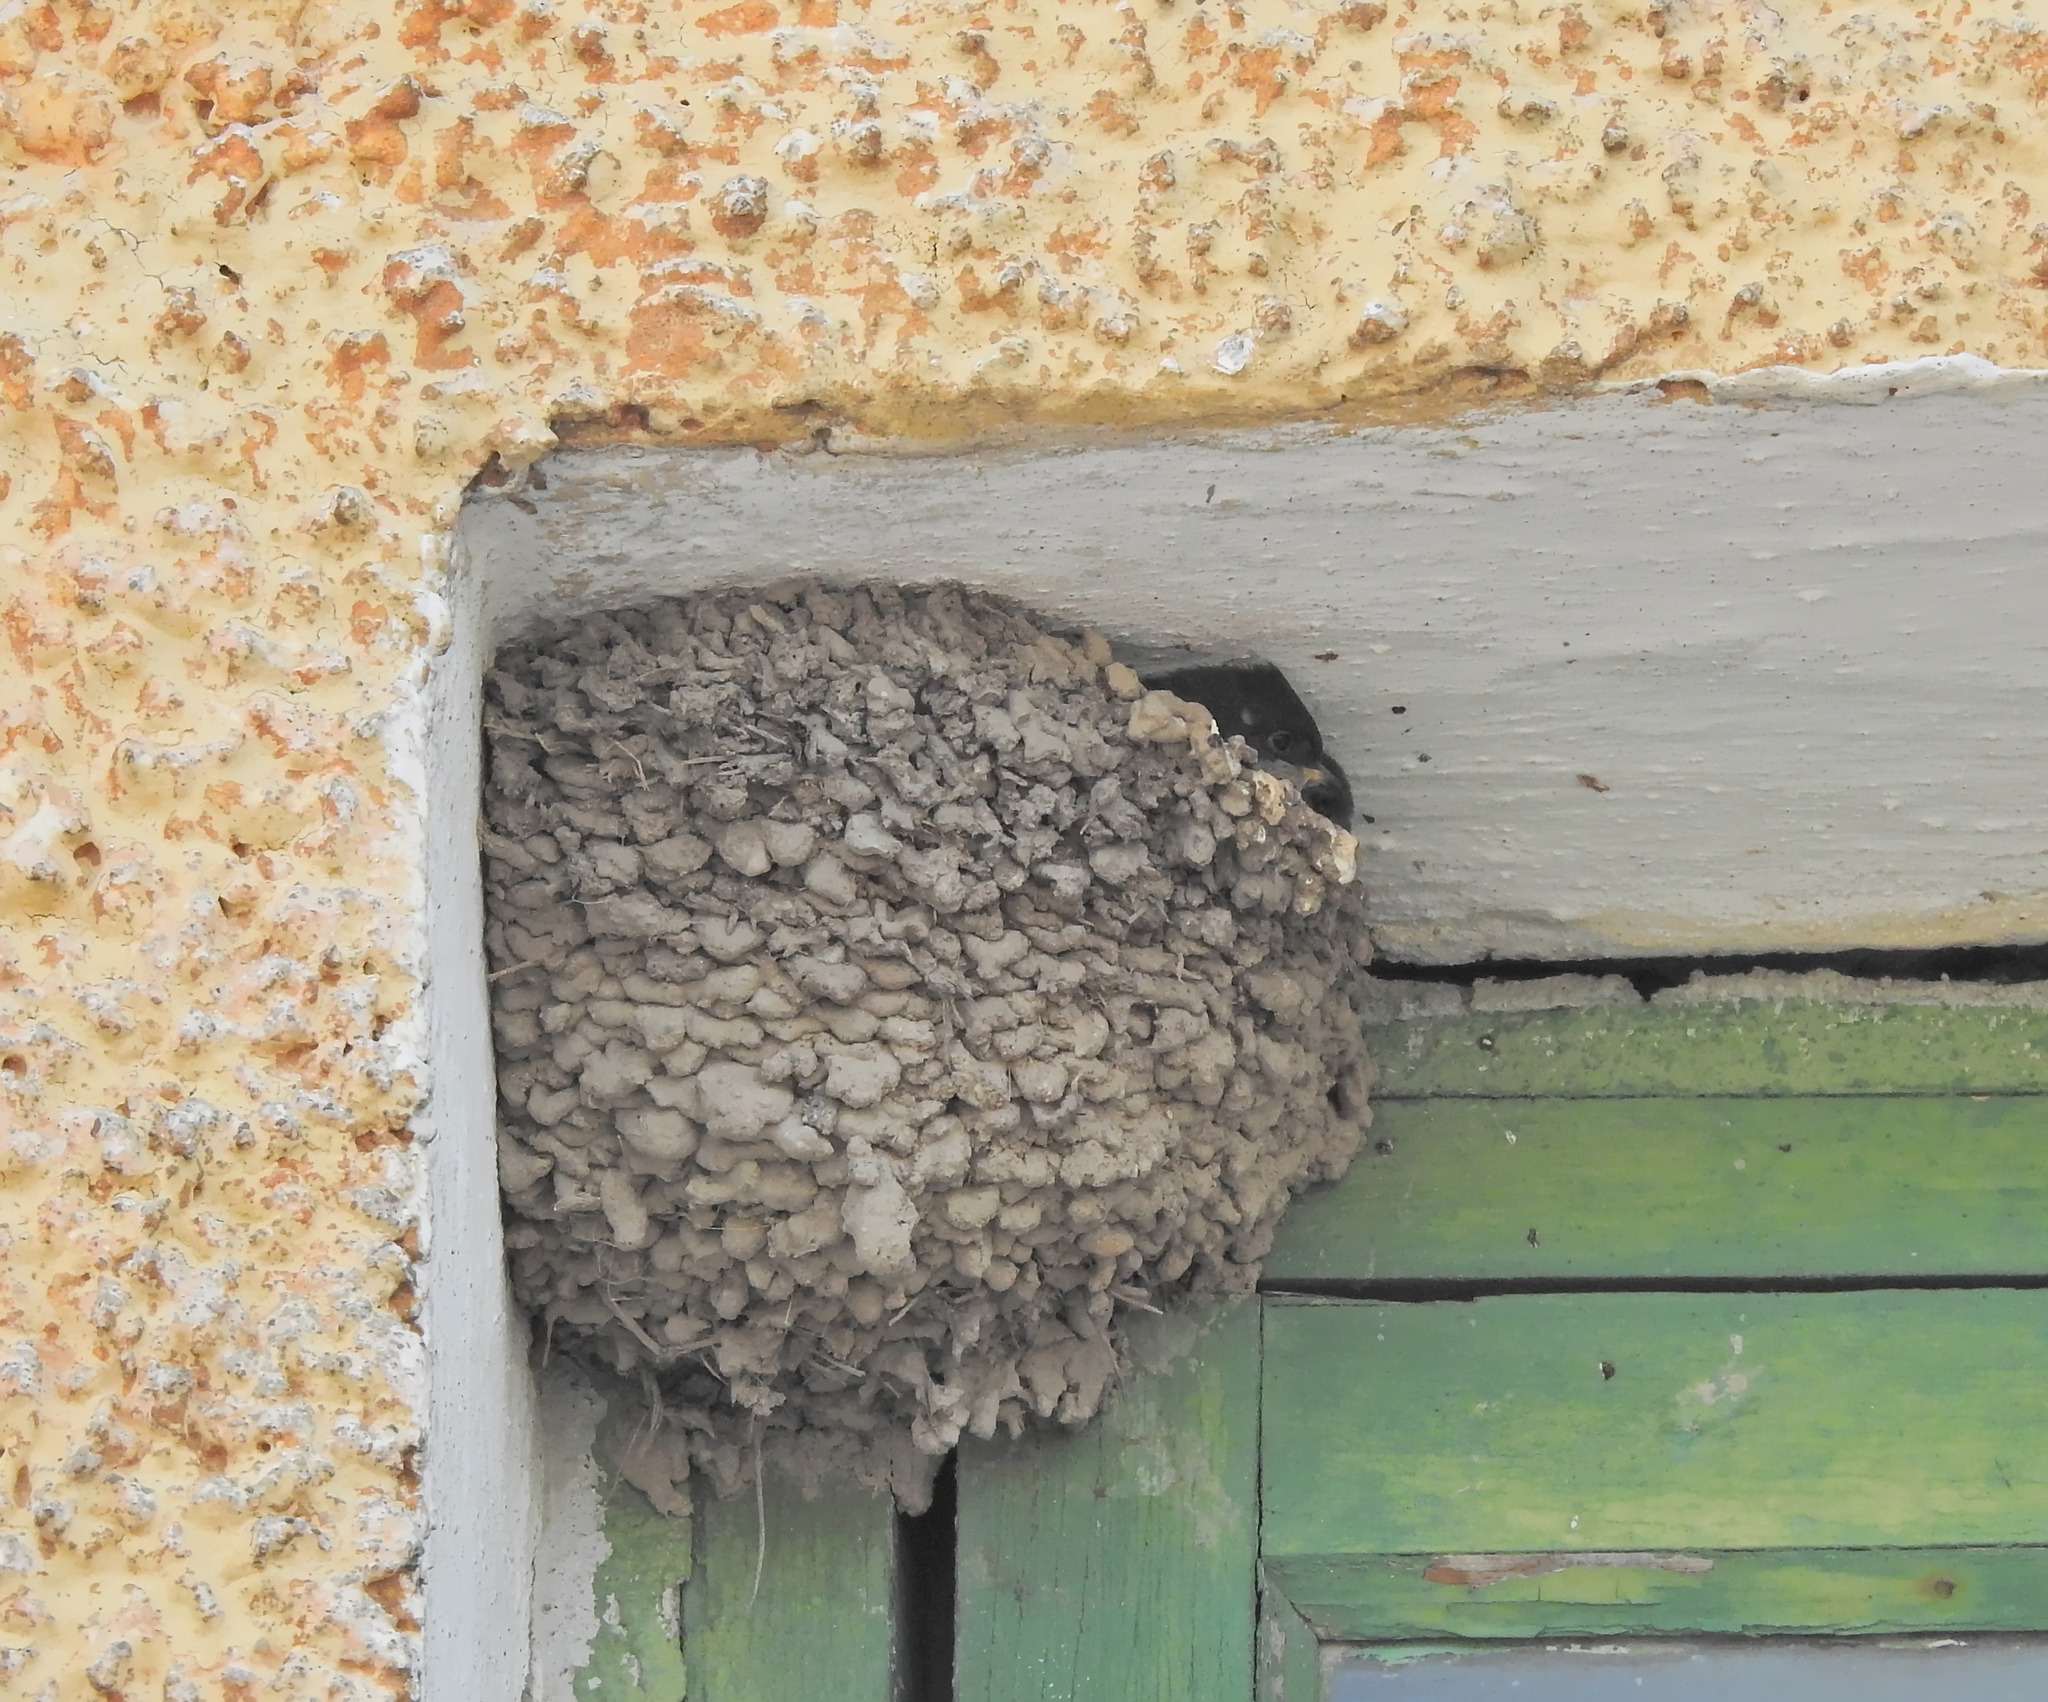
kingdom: Animalia
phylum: Chordata
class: Aves
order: Passeriformes
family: Hirundinidae
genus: Delichon
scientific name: Delichon urbicum
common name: Common house martin
